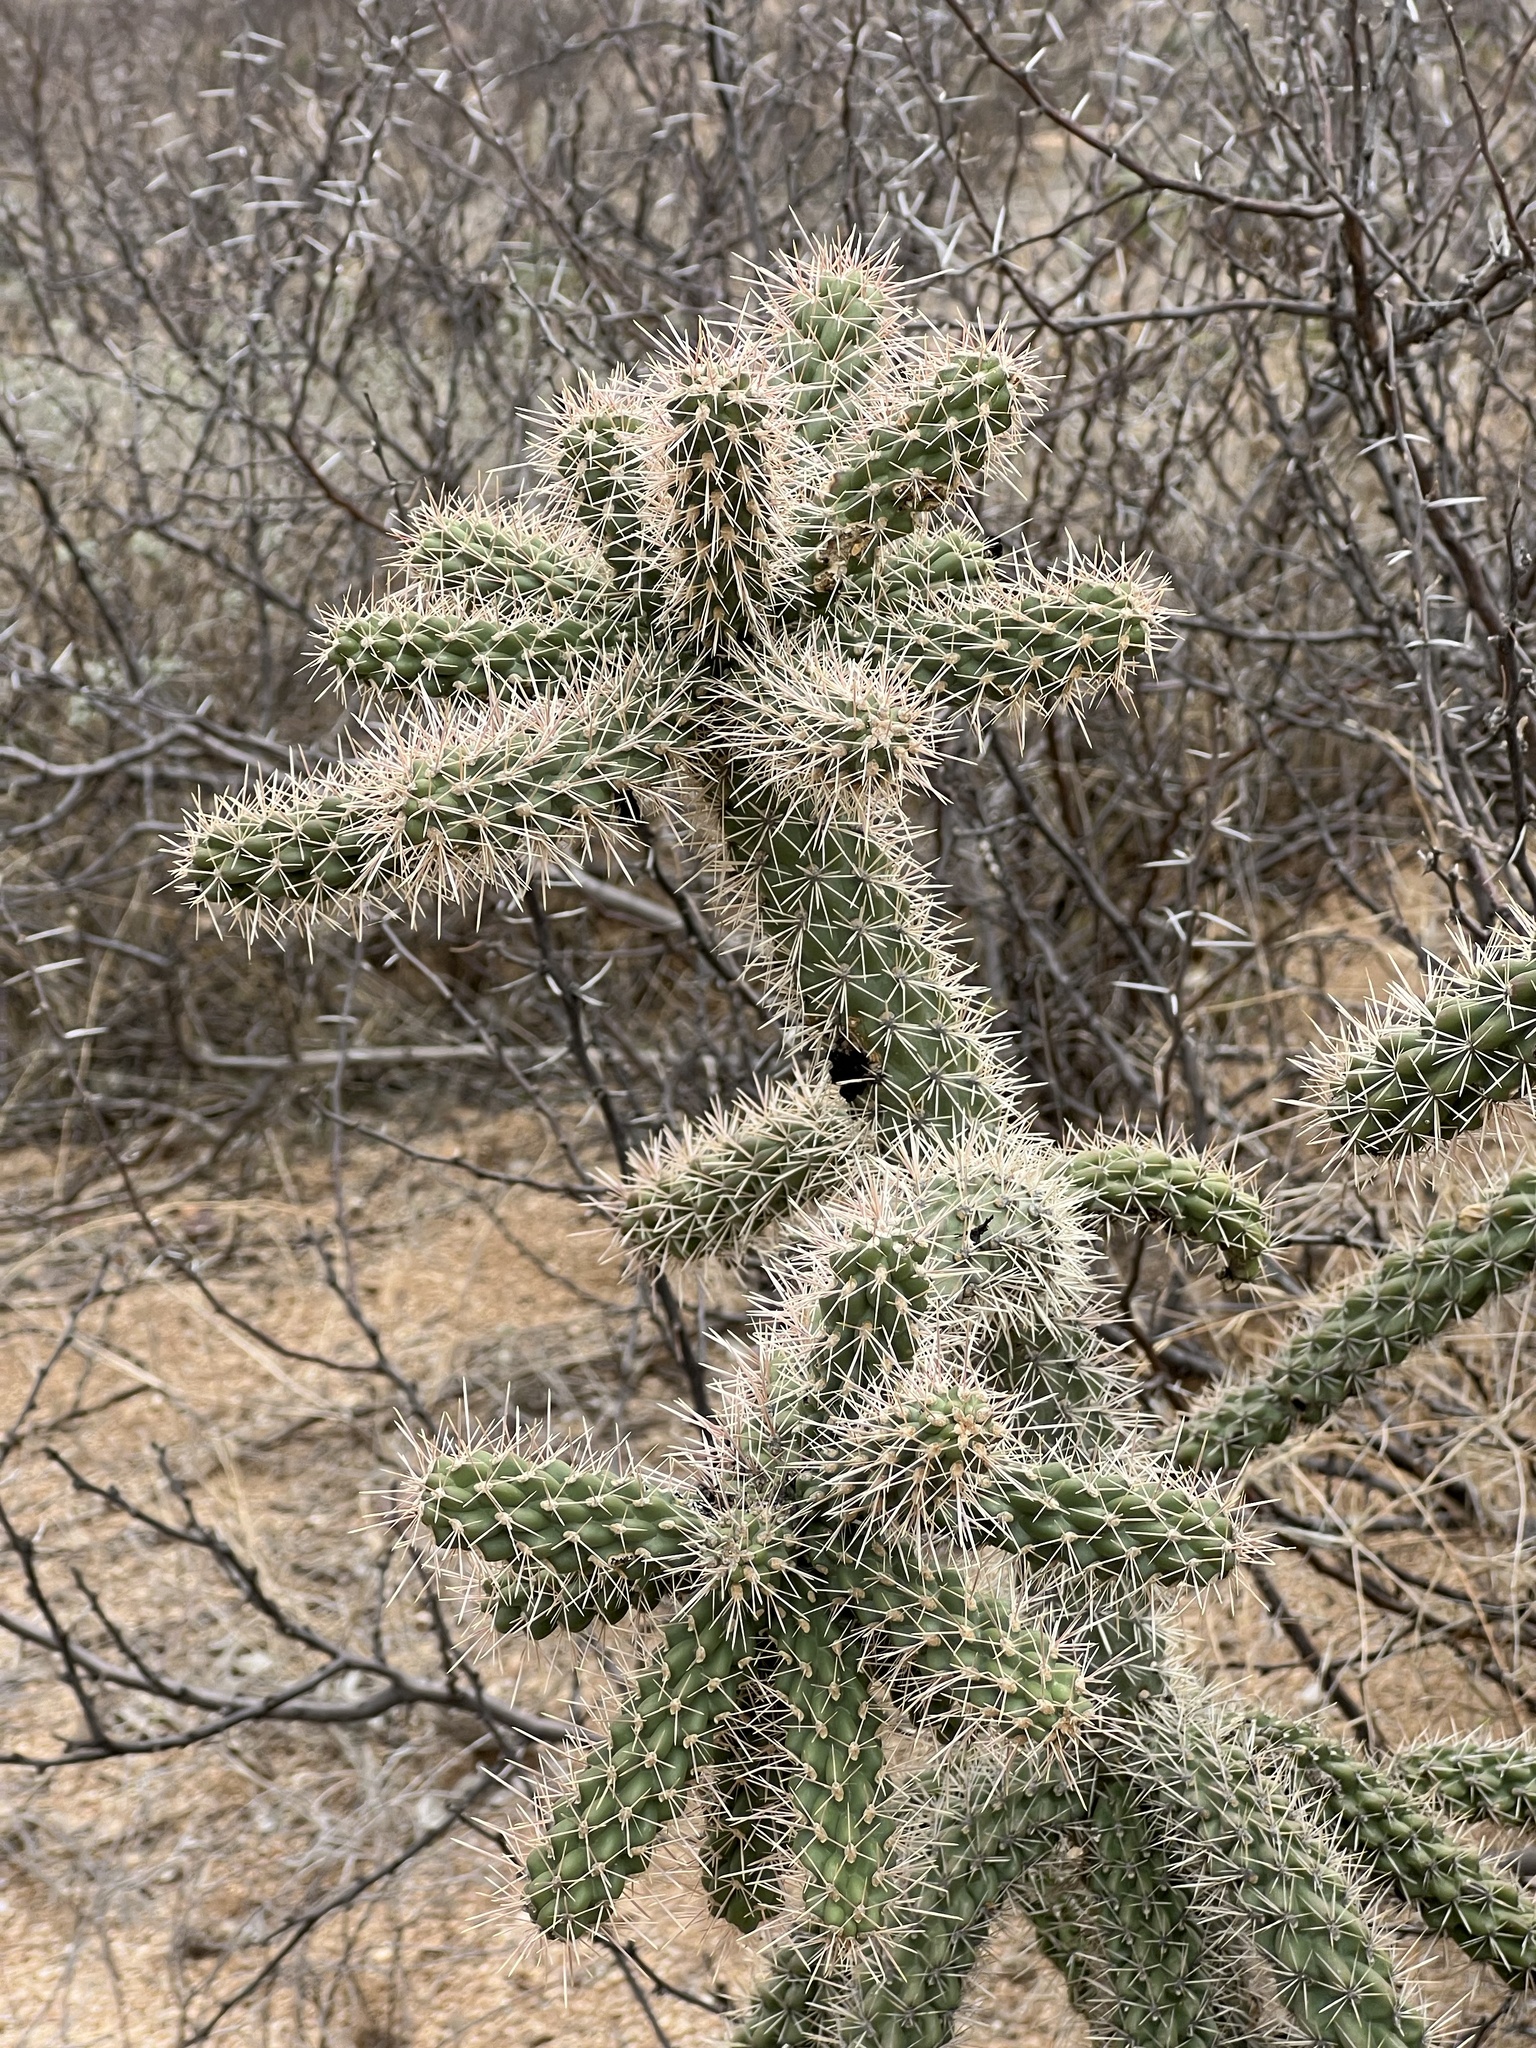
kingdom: Plantae
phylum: Tracheophyta
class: Magnoliopsida
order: Caryophyllales
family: Cactaceae
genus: Cylindropuntia
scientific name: Cylindropuntia imbricata
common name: Candelabrum cactus
